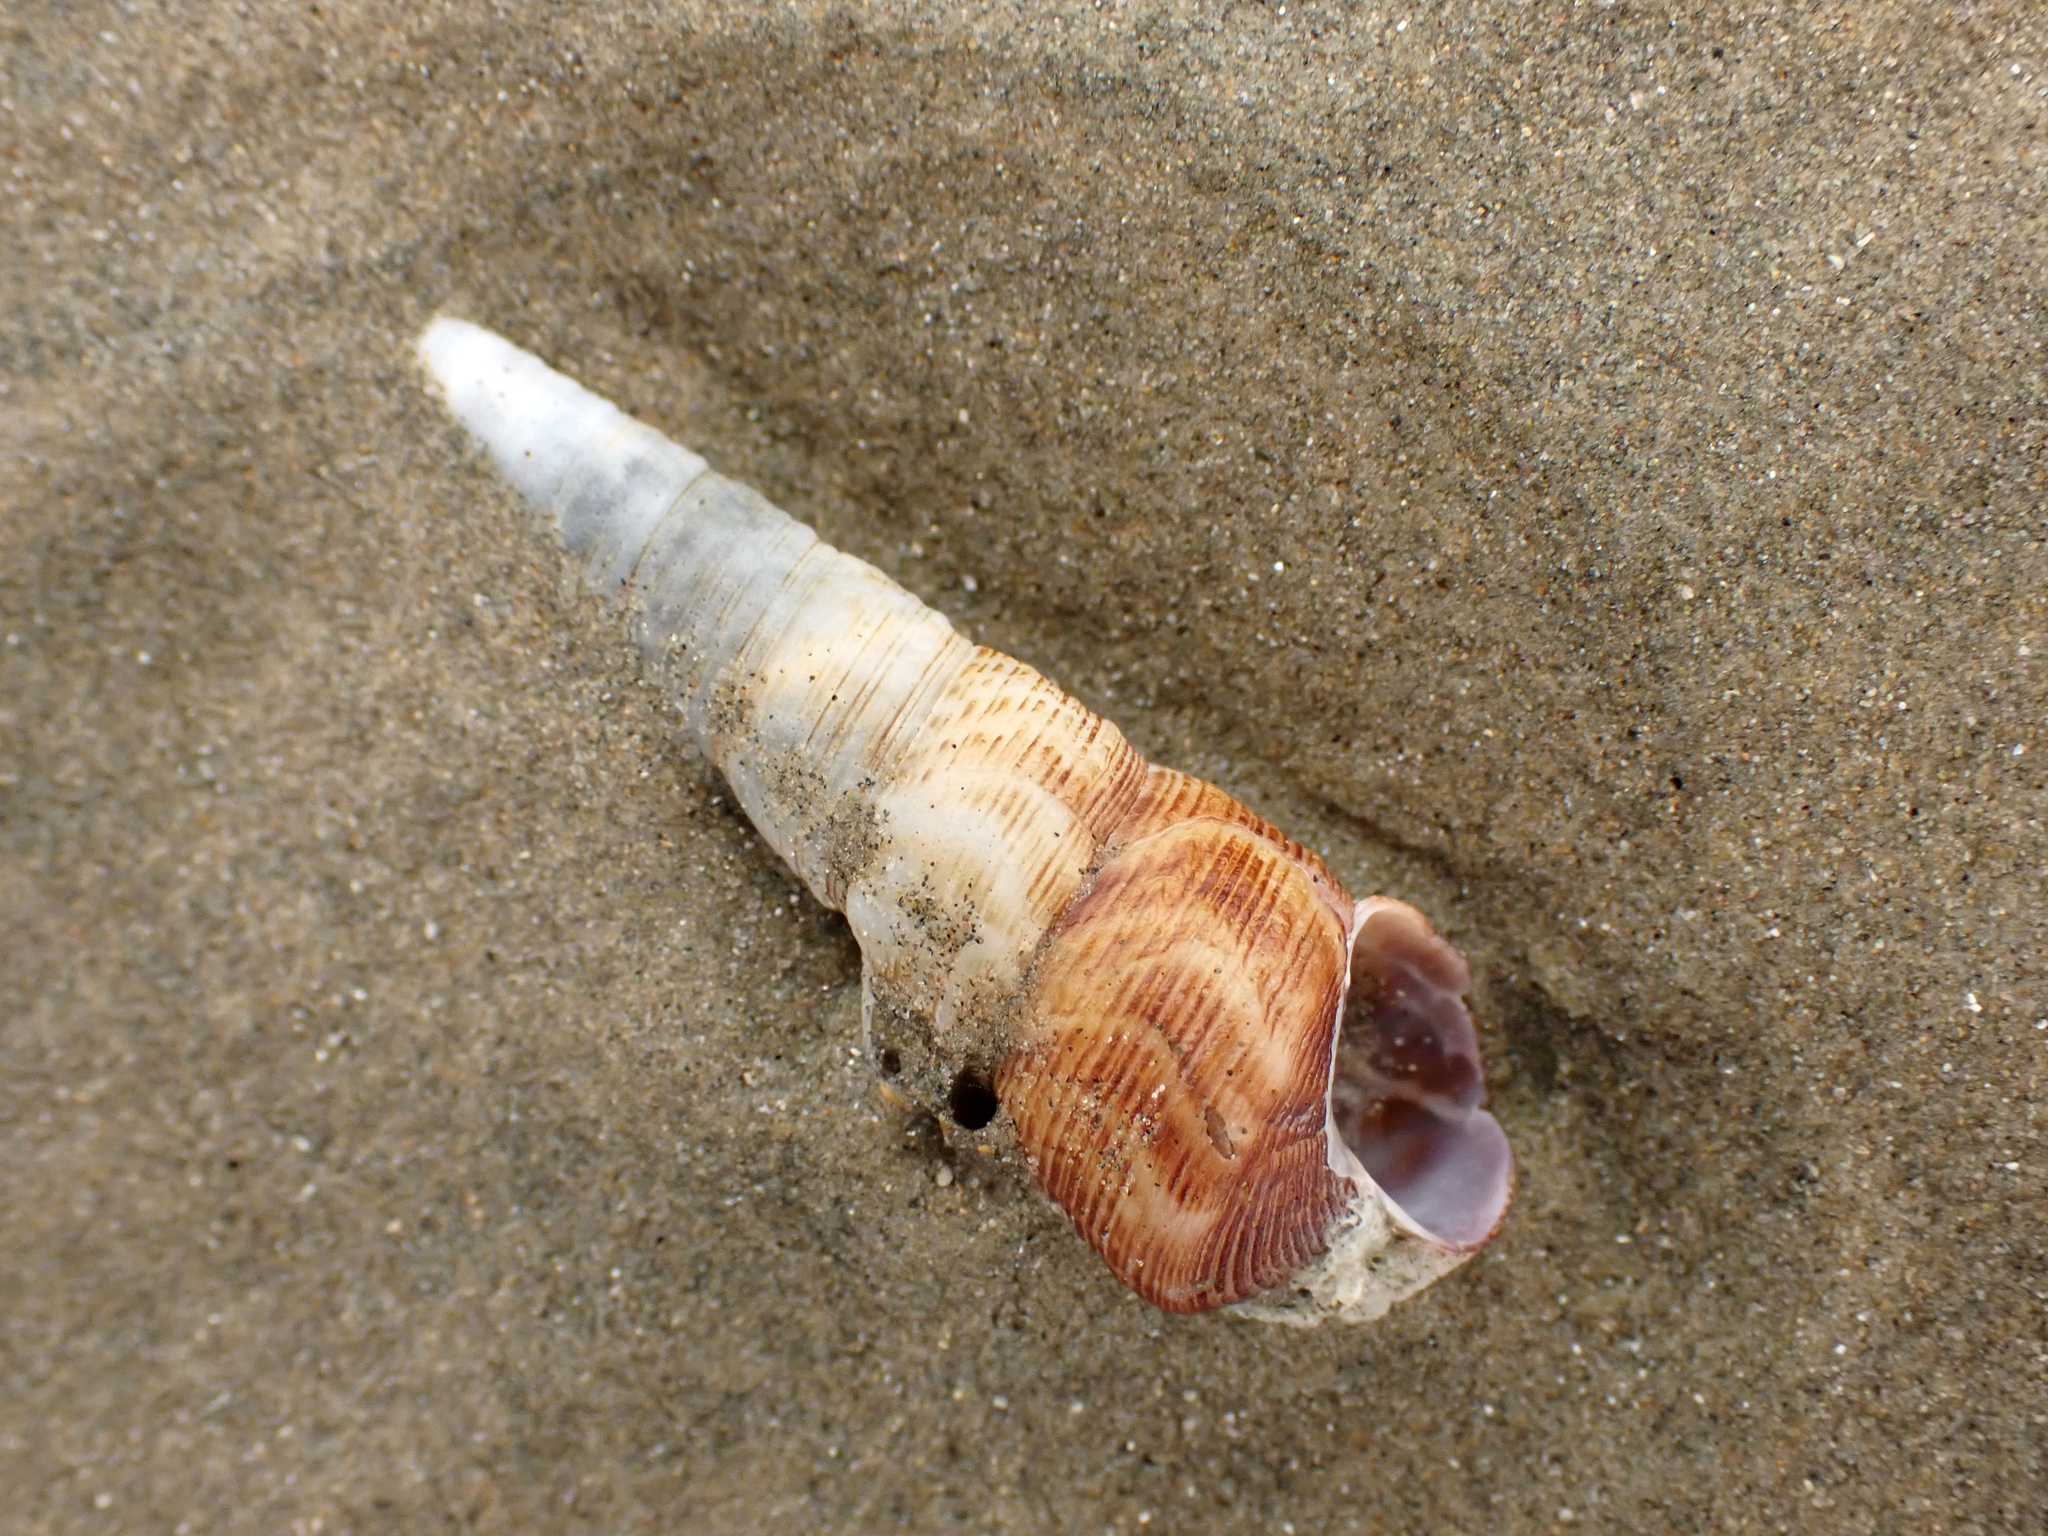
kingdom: Animalia
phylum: Mollusca
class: Gastropoda
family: Turritellidae
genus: Maoricolpus
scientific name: Maoricolpus roseus
